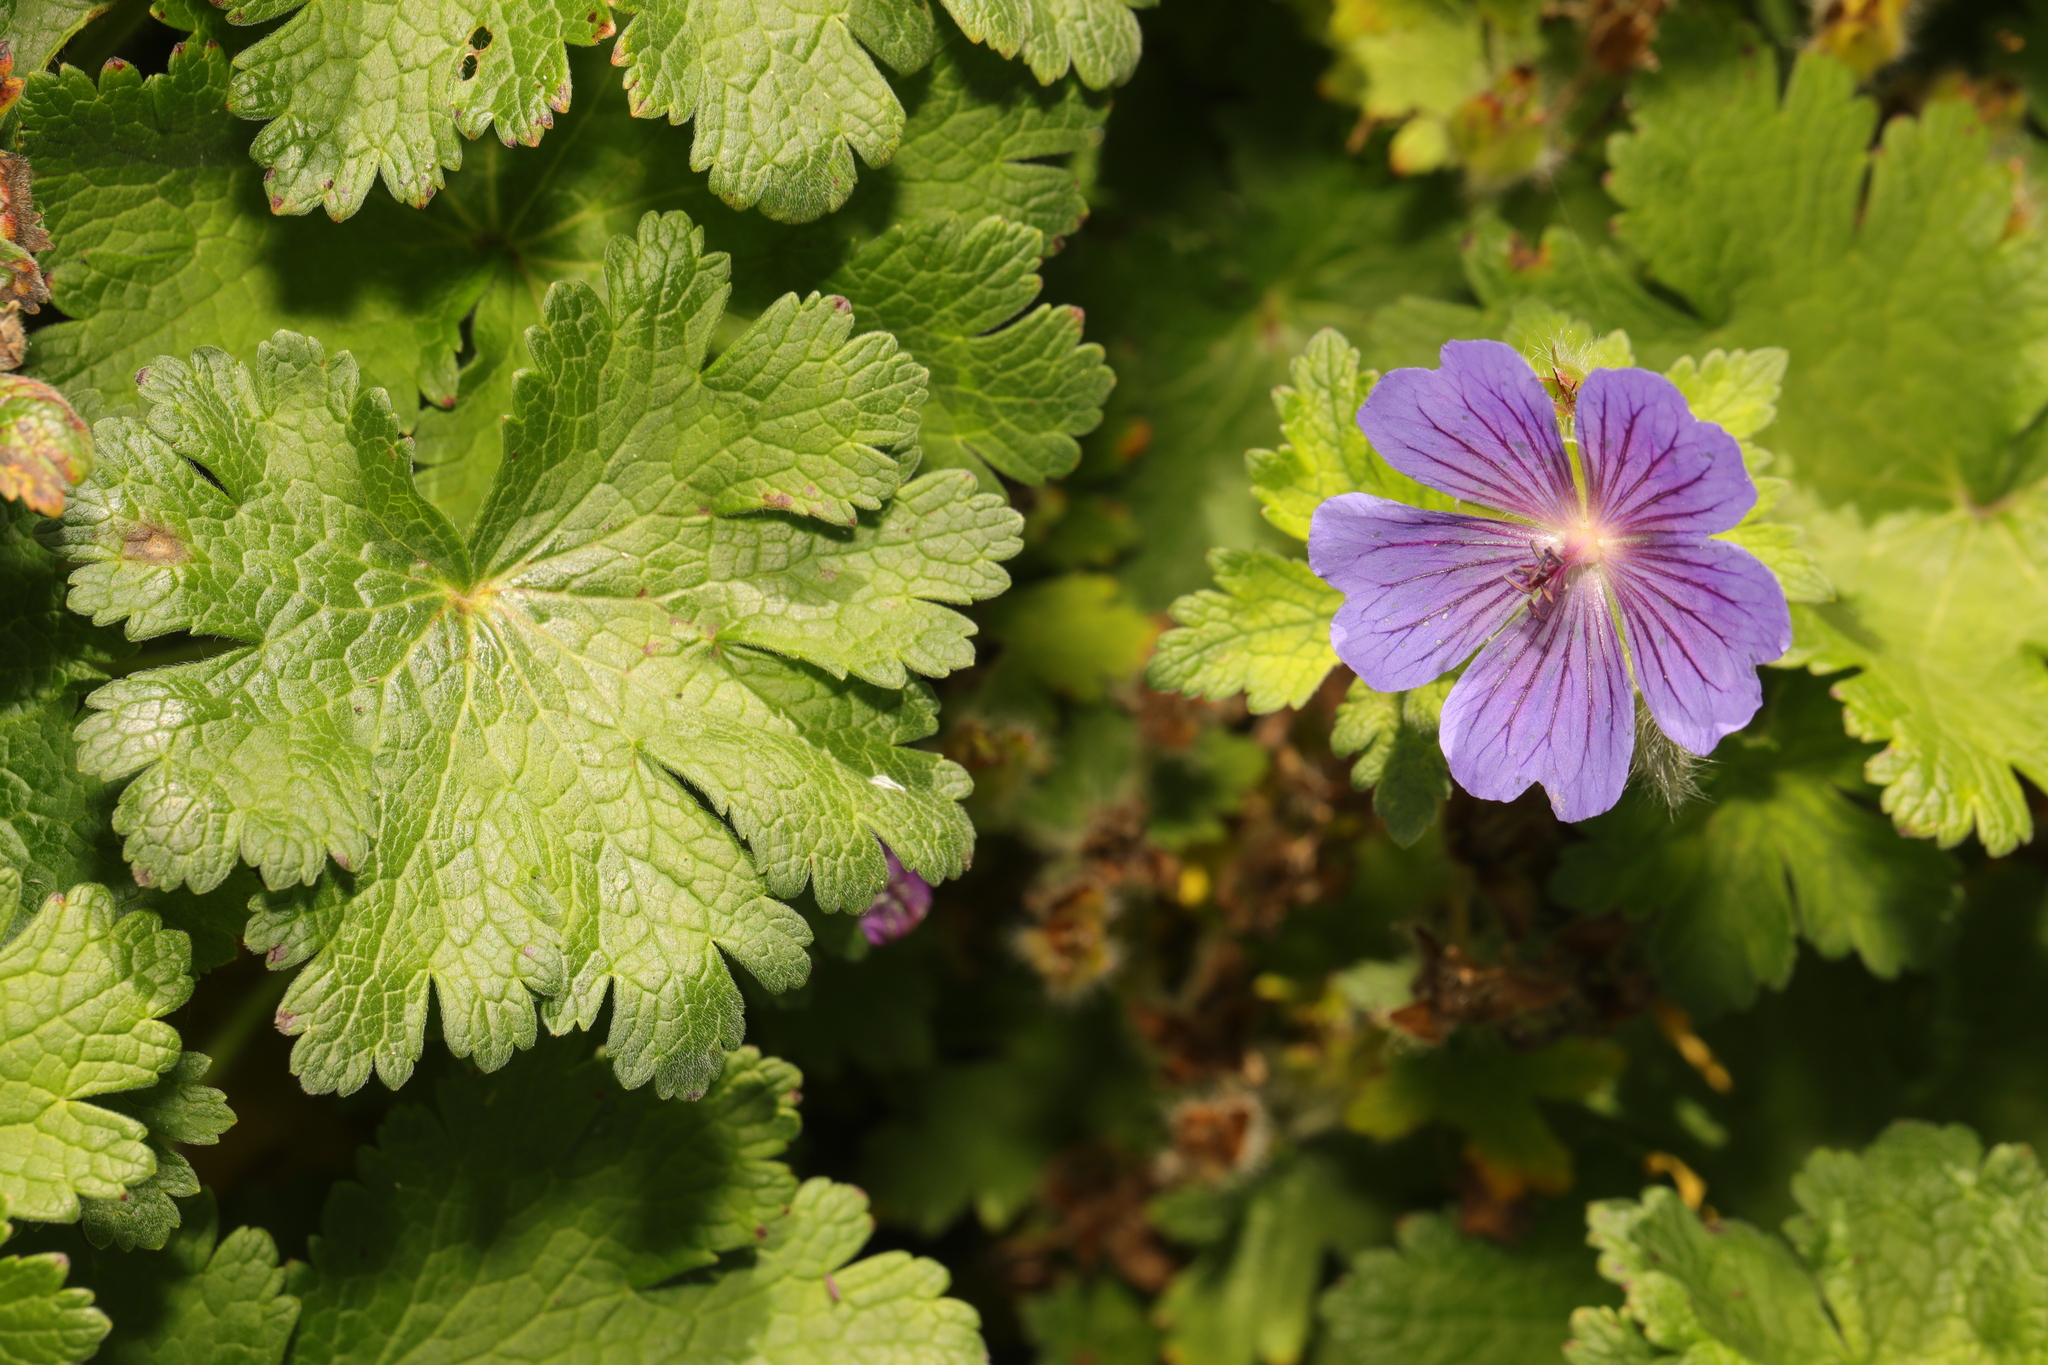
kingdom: Plantae
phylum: Tracheophyta
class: Magnoliopsida
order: Geraniales
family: Geraniaceae
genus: Geranium
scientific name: Geranium pratense
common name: Meadow crane's-bill
